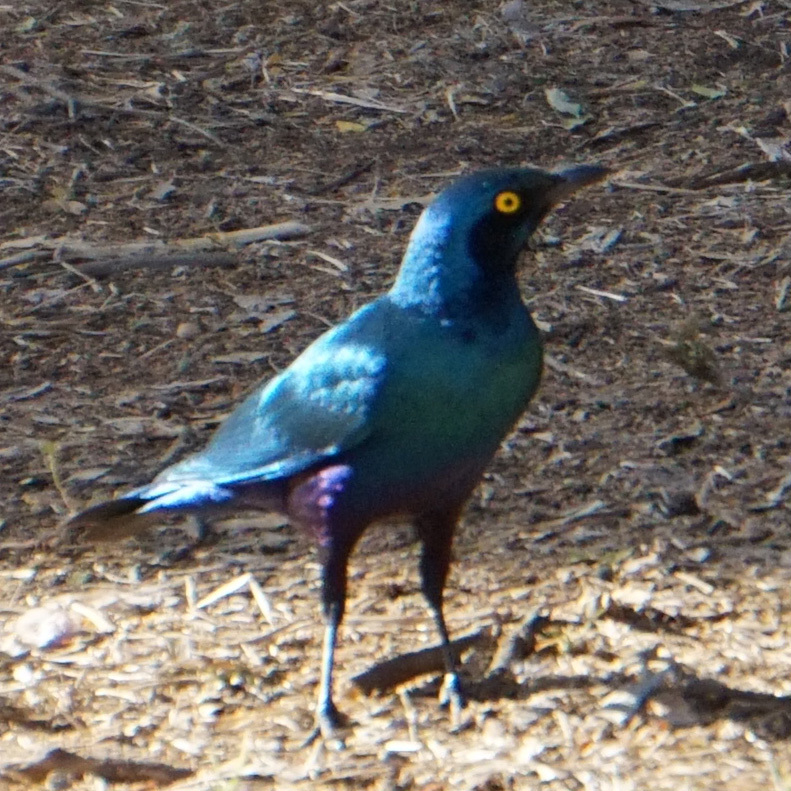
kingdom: Animalia
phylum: Chordata
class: Aves
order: Passeriformes
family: Sturnidae
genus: Lamprotornis
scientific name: Lamprotornis chalybaeus
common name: Greater blue-eared starling
